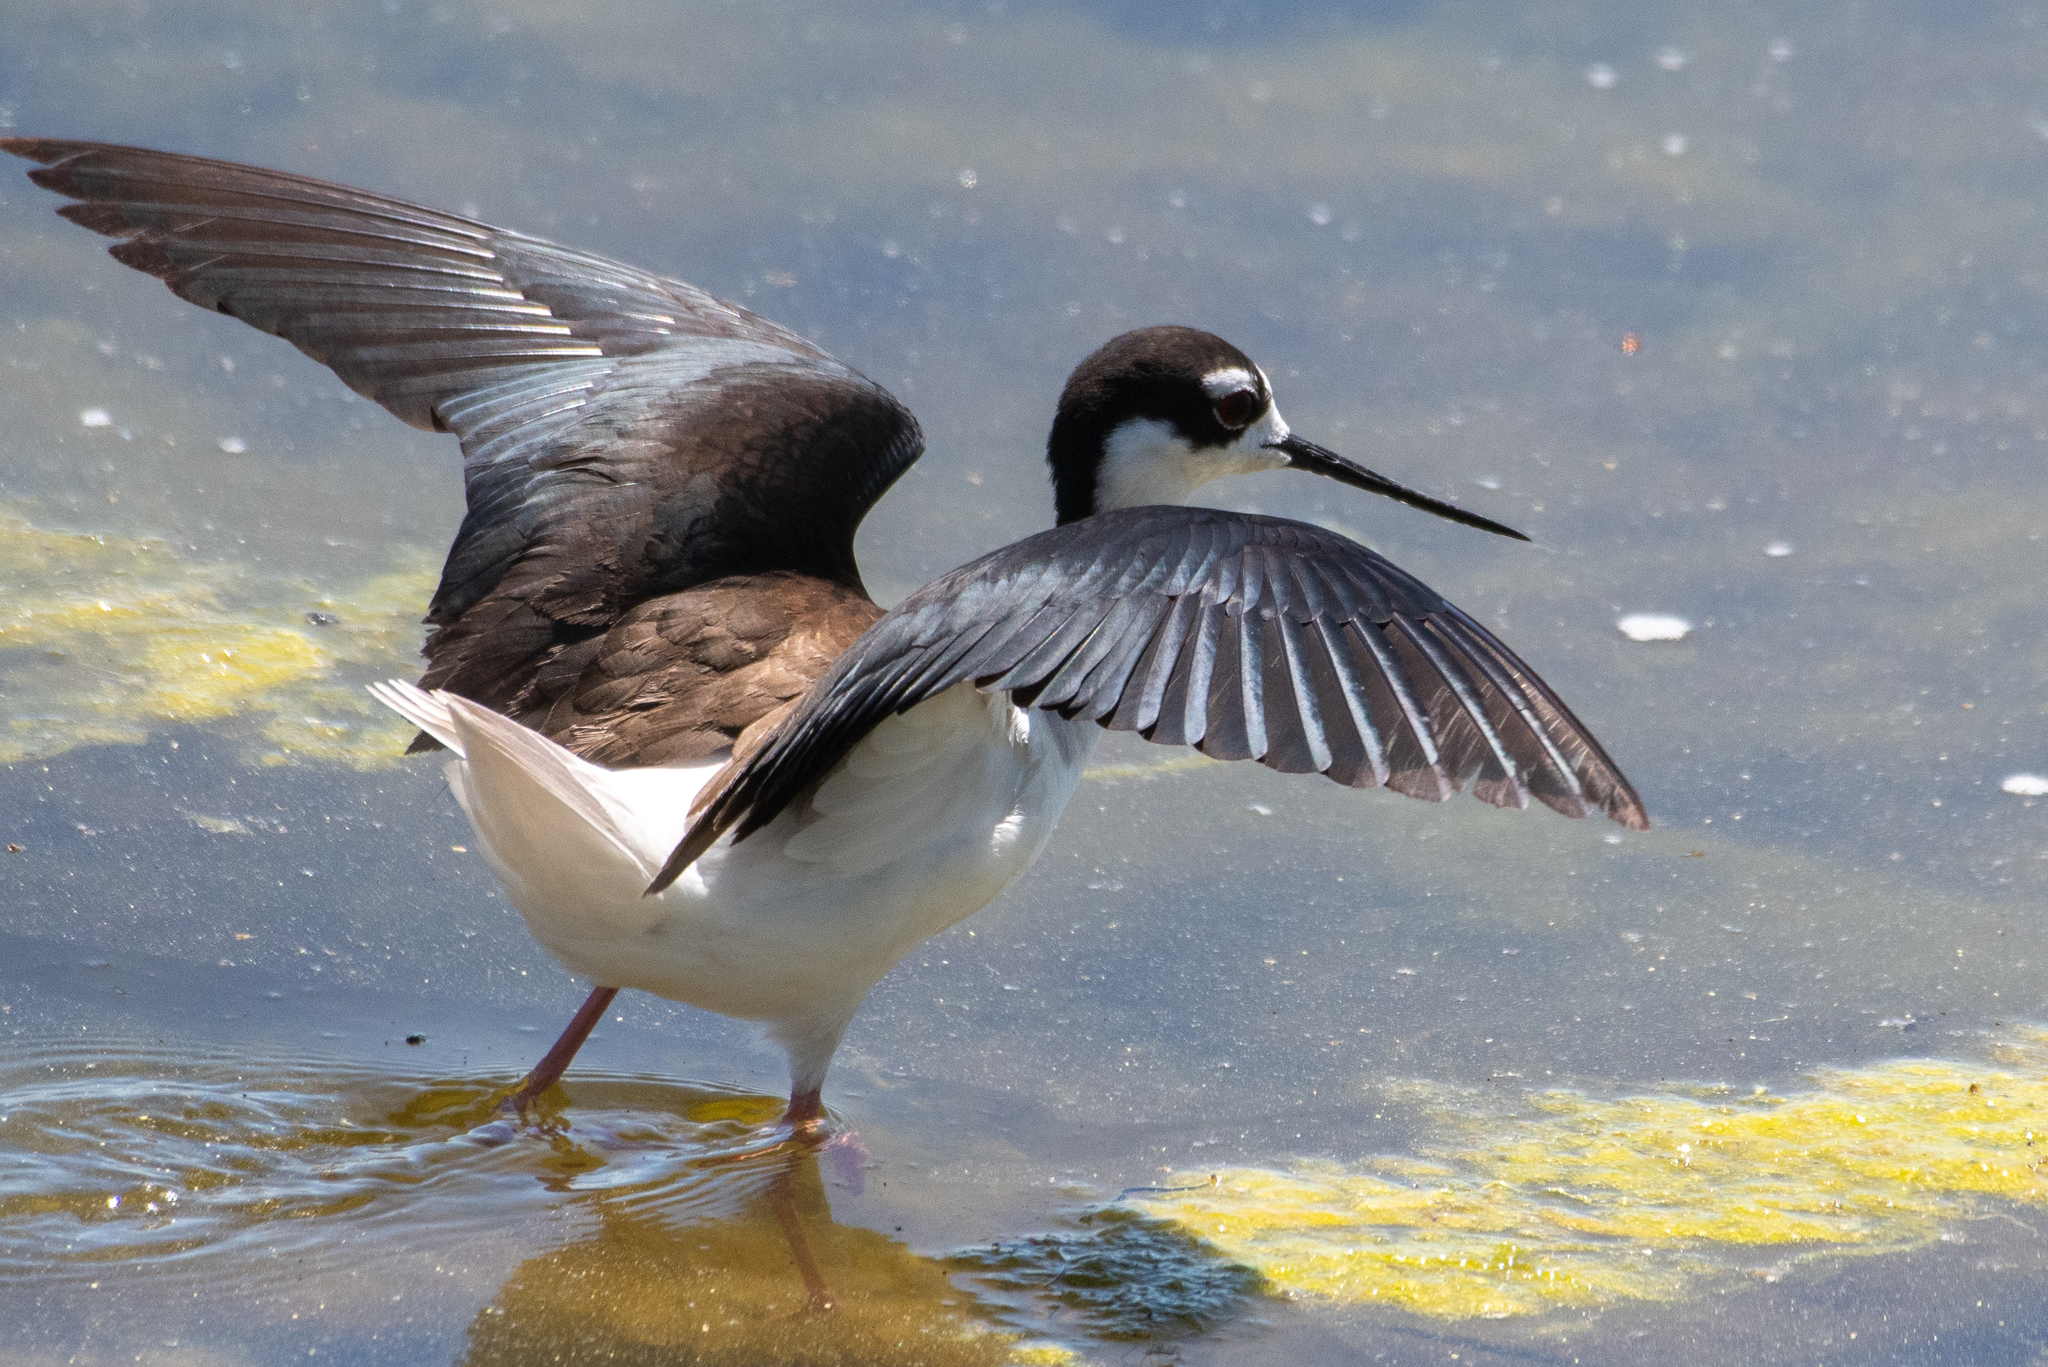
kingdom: Animalia
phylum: Chordata
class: Aves
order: Charadriiformes
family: Recurvirostridae
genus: Himantopus
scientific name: Himantopus mexicanus
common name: Black-necked stilt
